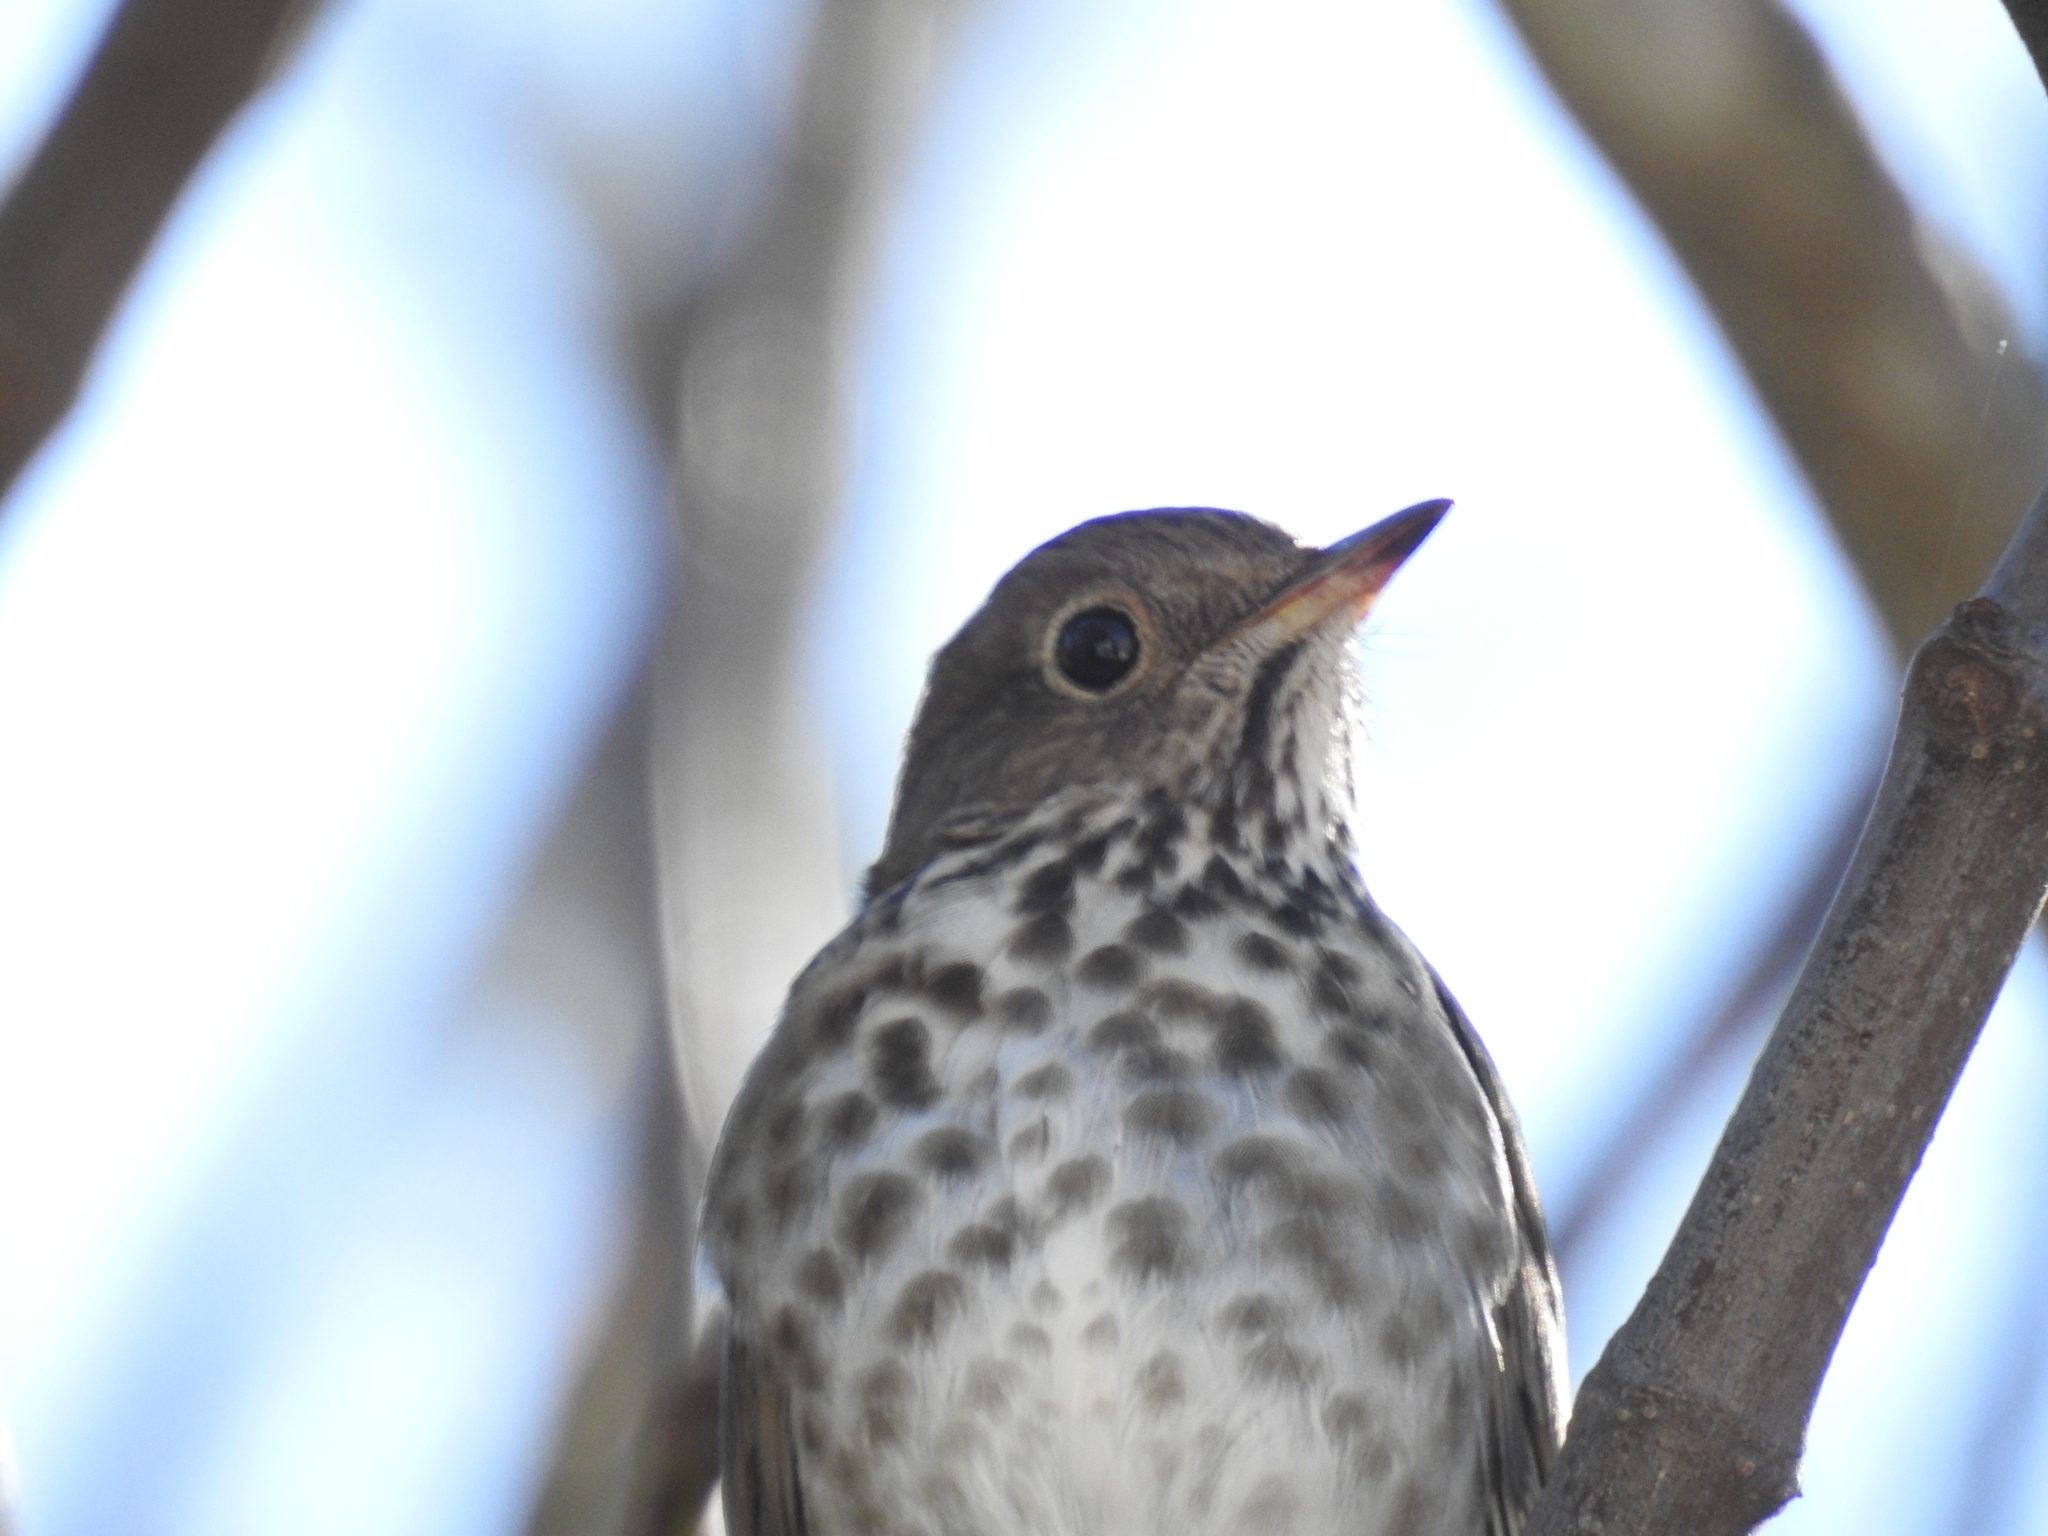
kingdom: Animalia
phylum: Chordata
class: Aves
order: Passeriformes
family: Turdidae
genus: Catharus
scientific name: Catharus guttatus
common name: Hermit thrush
